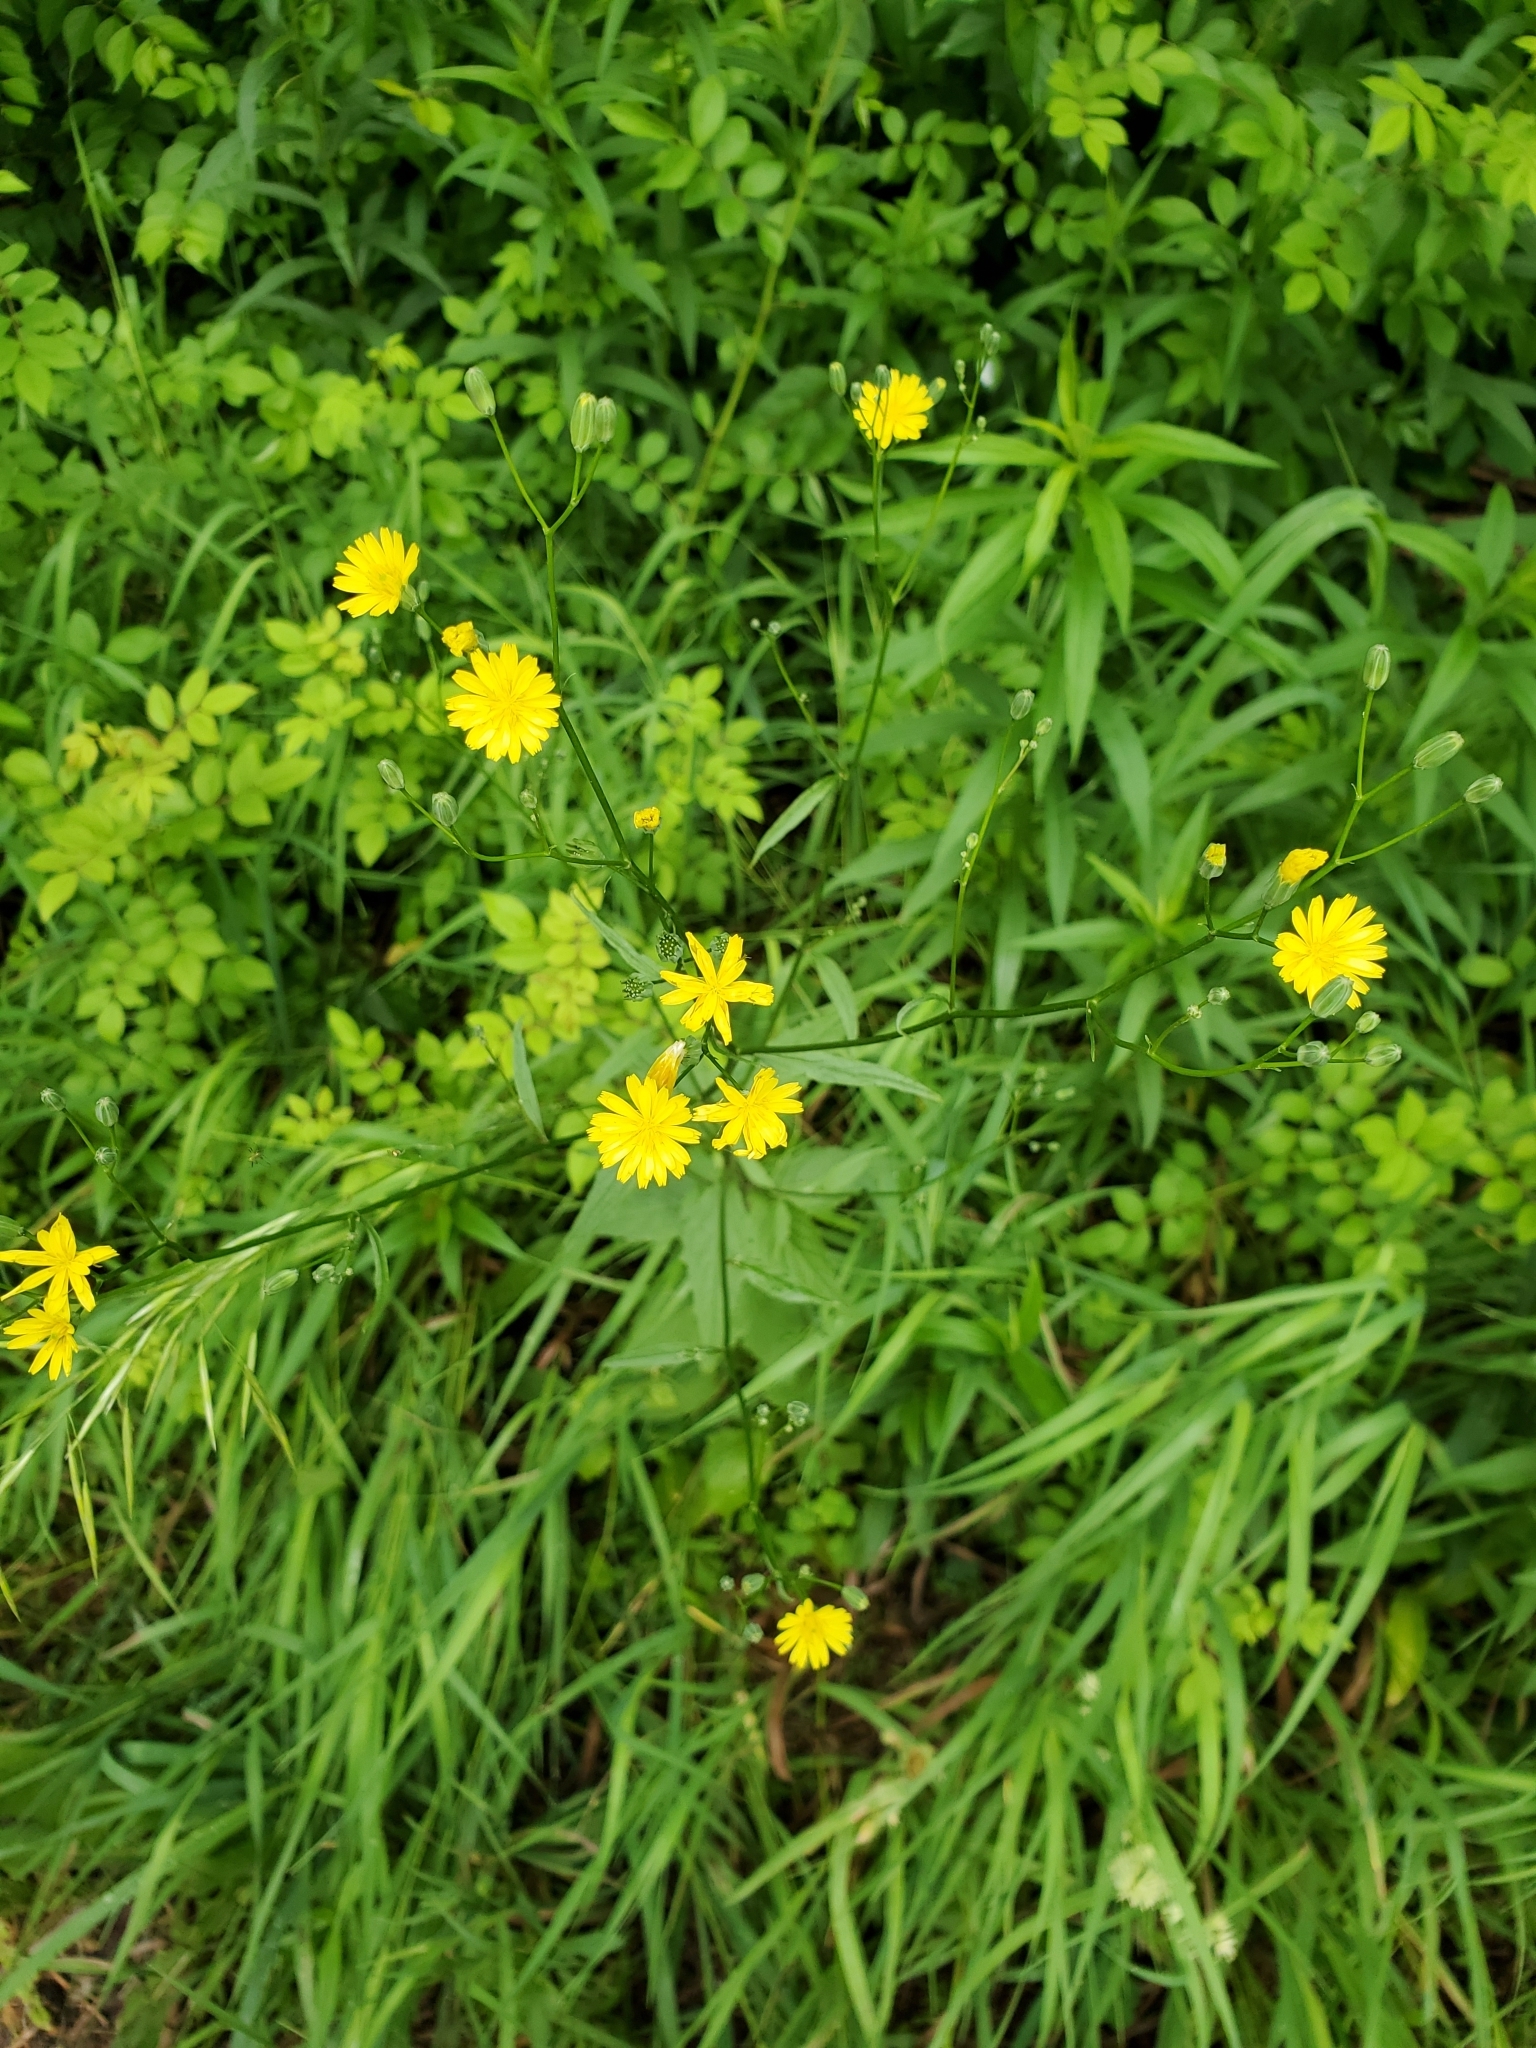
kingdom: Plantae
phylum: Tracheophyta
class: Magnoliopsida
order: Asterales
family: Asteraceae
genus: Lapsana
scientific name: Lapsana communis
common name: Nipplewort
